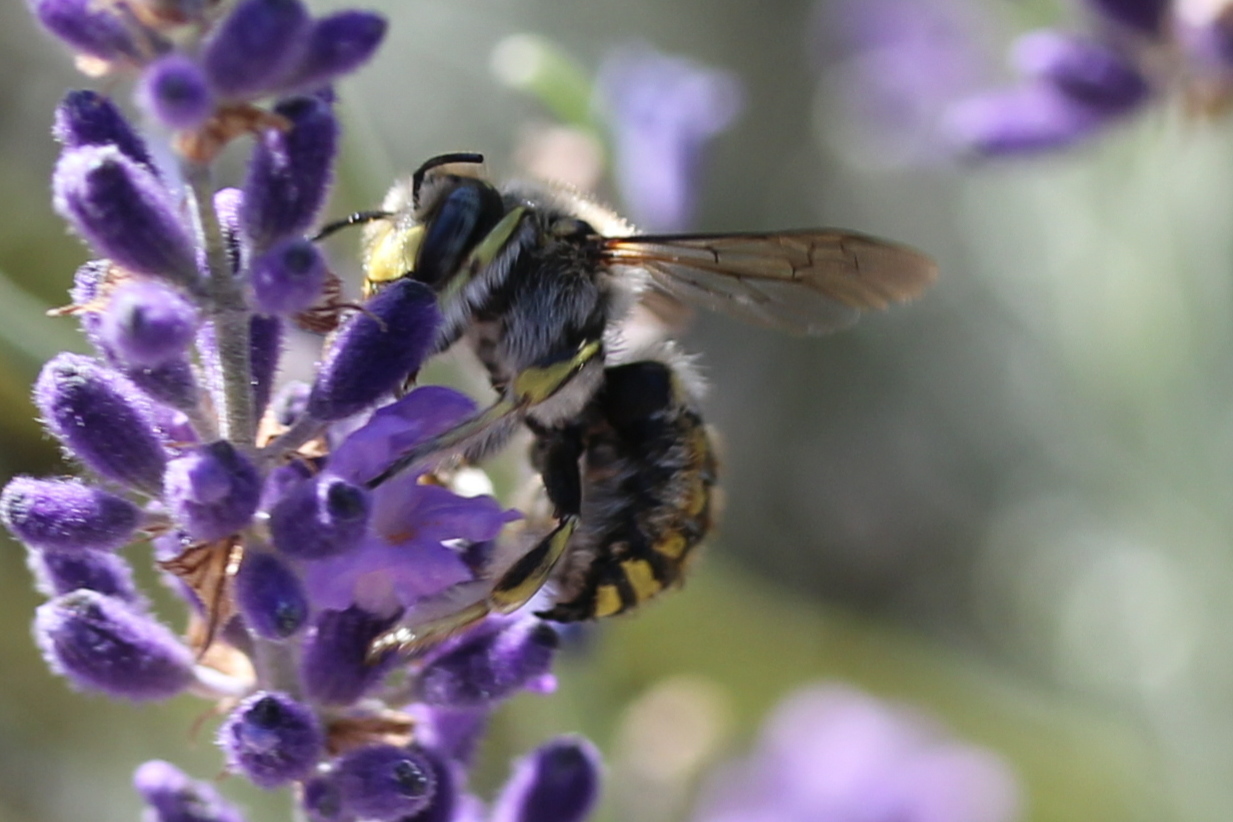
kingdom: Animalia
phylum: Arthropoda
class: Insecta
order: Hymenoptera
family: Megachilidae
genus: Anthidium
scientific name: Anthidium manicatum
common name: Wool carder bee
